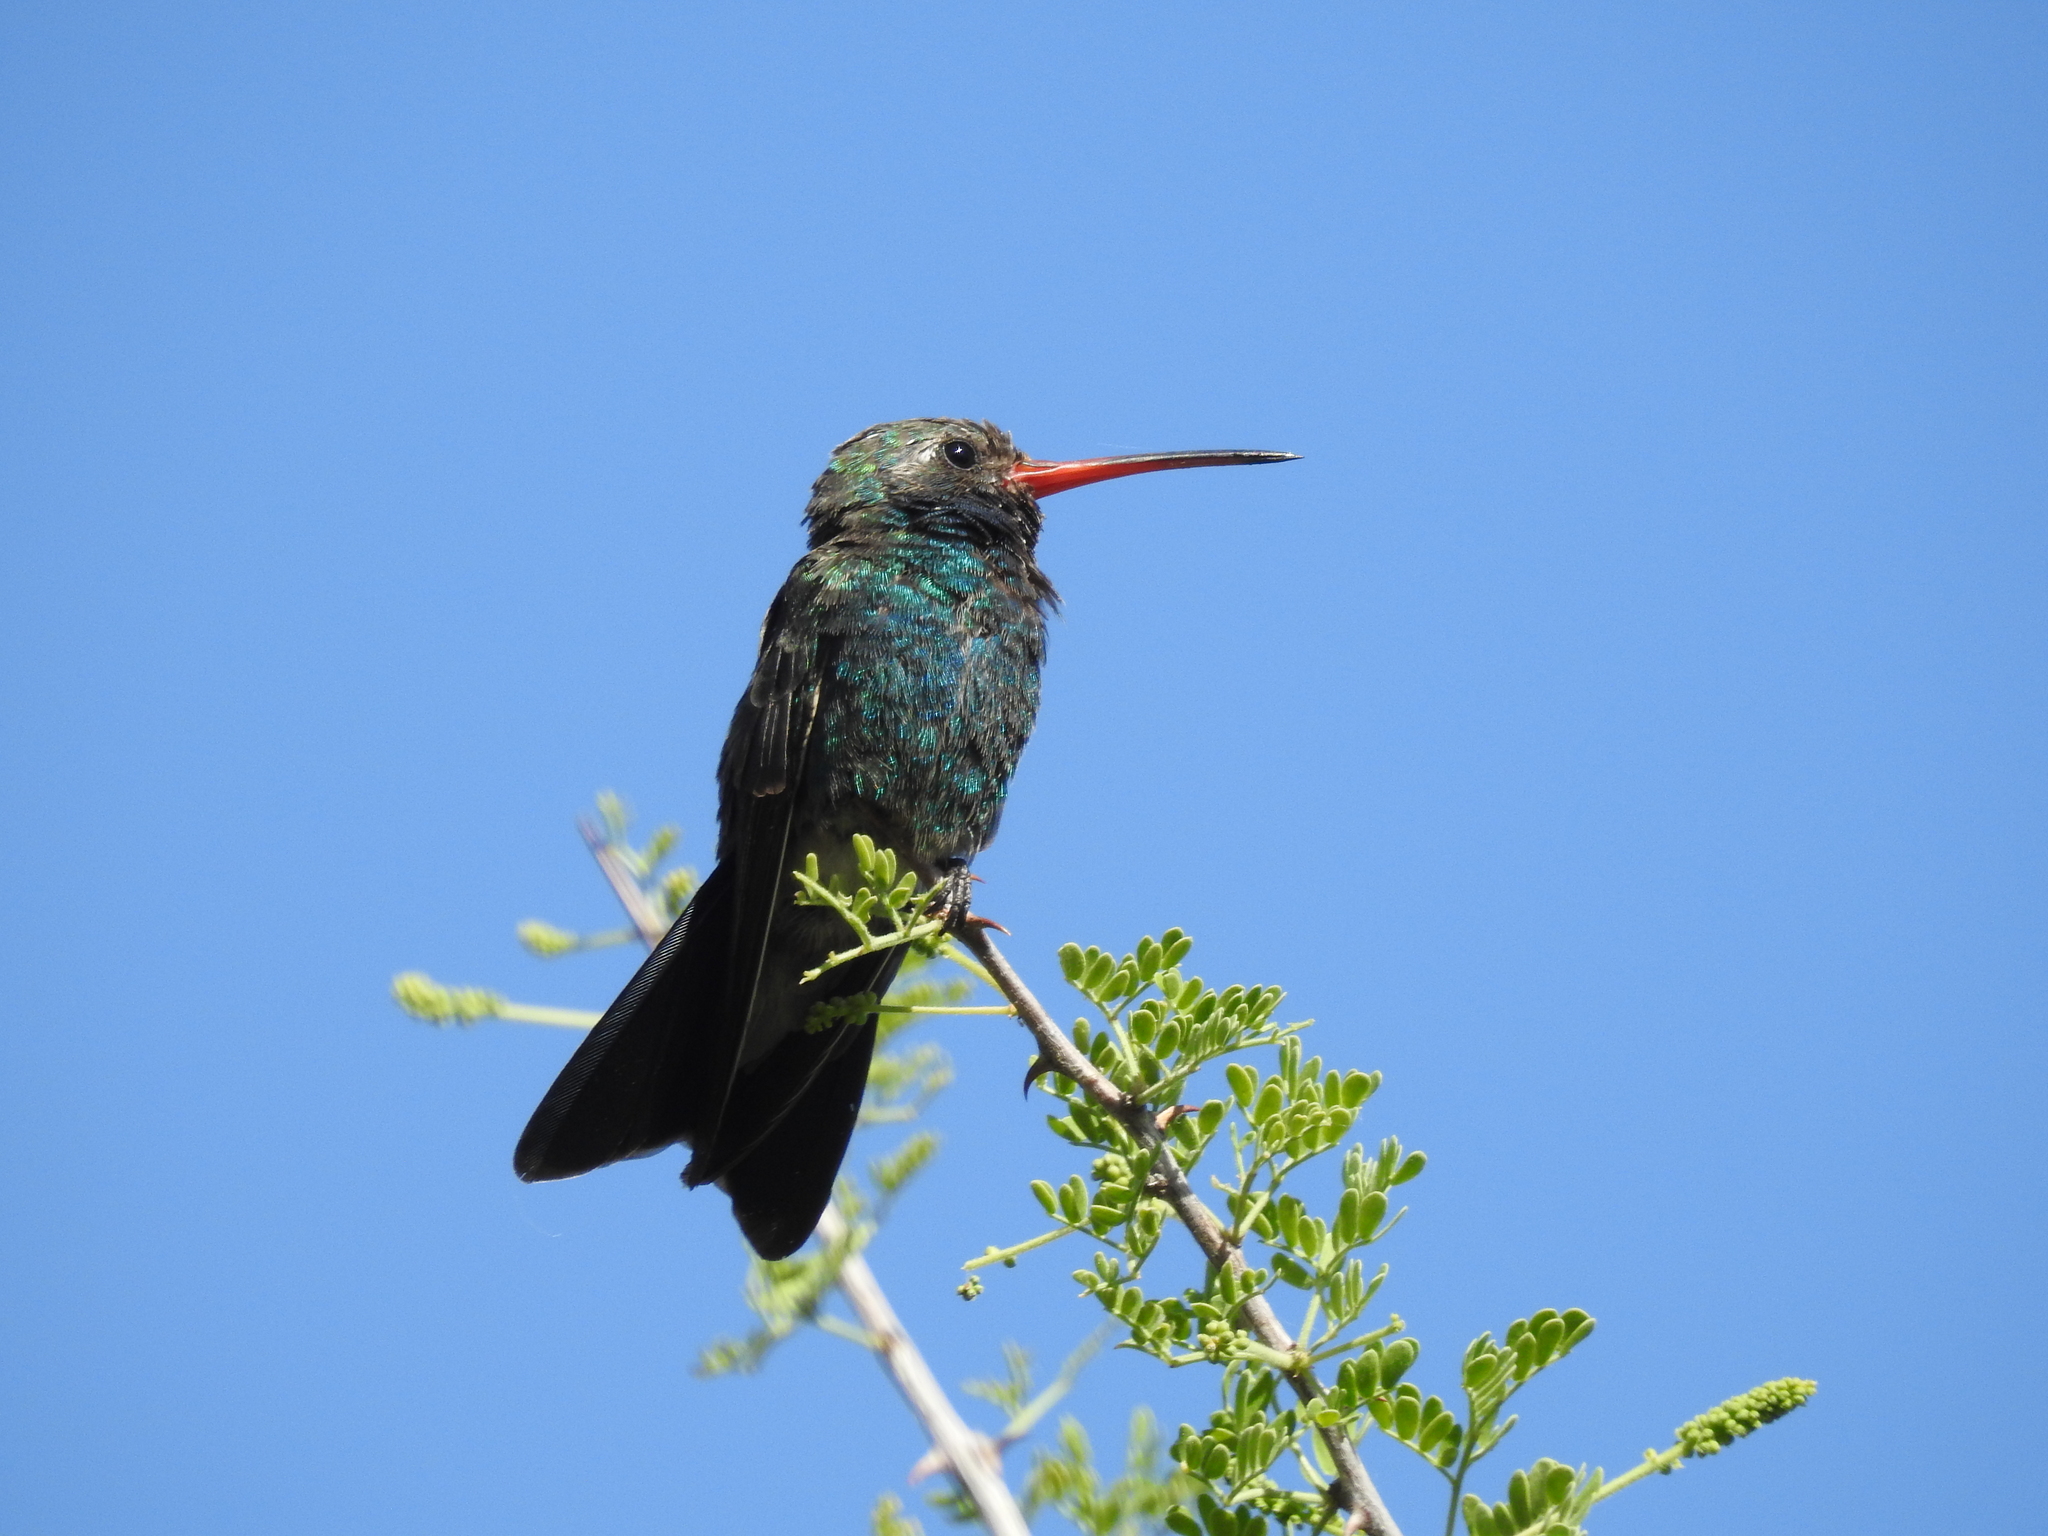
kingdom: Animalia
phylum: Chordata
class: Aves
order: Apodiformes
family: Trochilidae
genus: Cynanthus
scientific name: Cynanthus latirostris
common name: Broad-billed hummingbird
